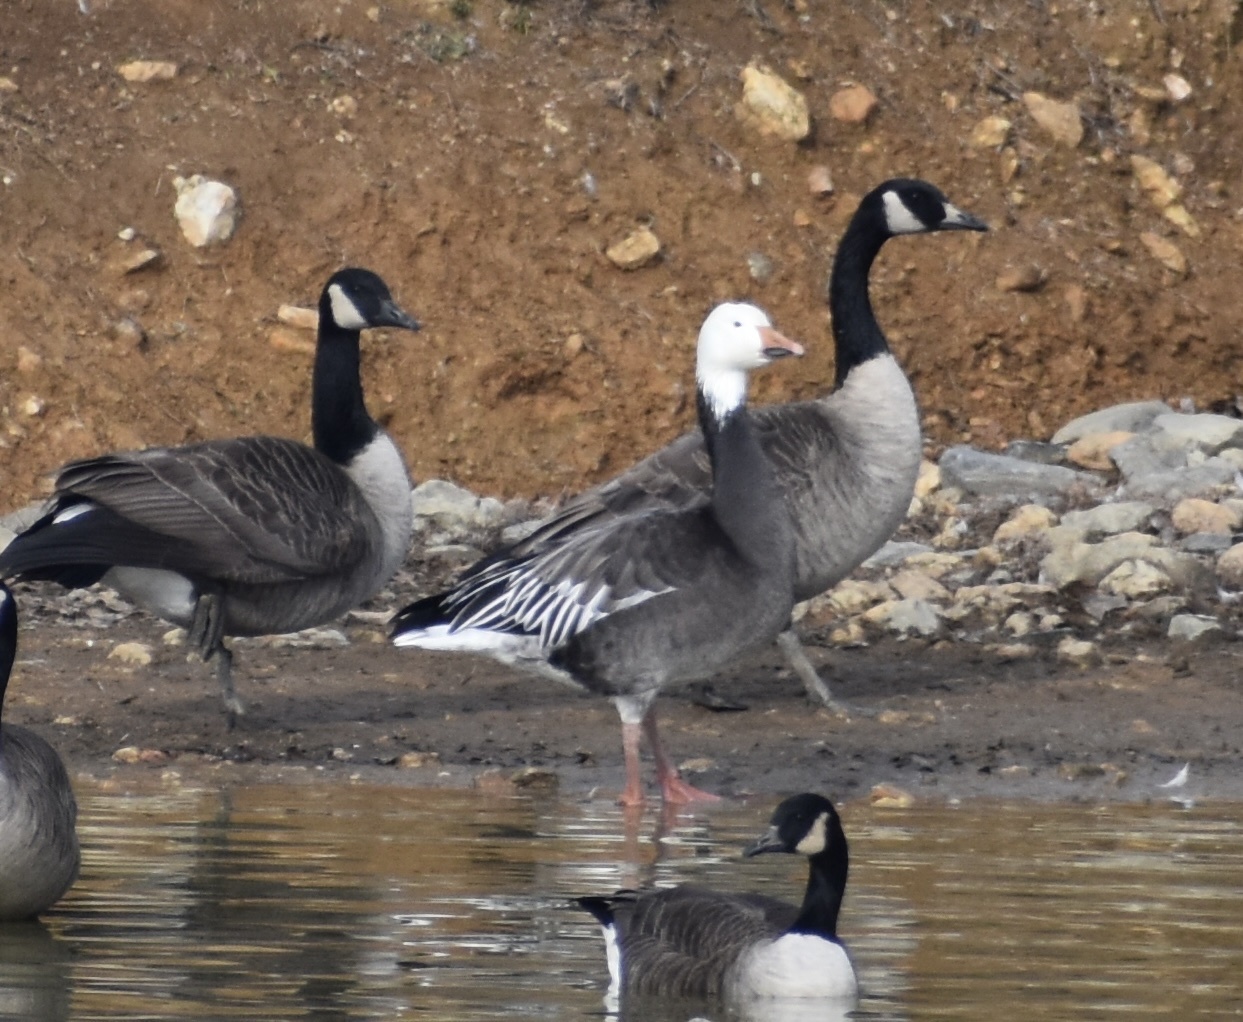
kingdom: Animalia
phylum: Chordata
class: Aves
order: Anseriformes
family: Anatidae
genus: Anser
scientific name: Anser caerulescens
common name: Snow goose
